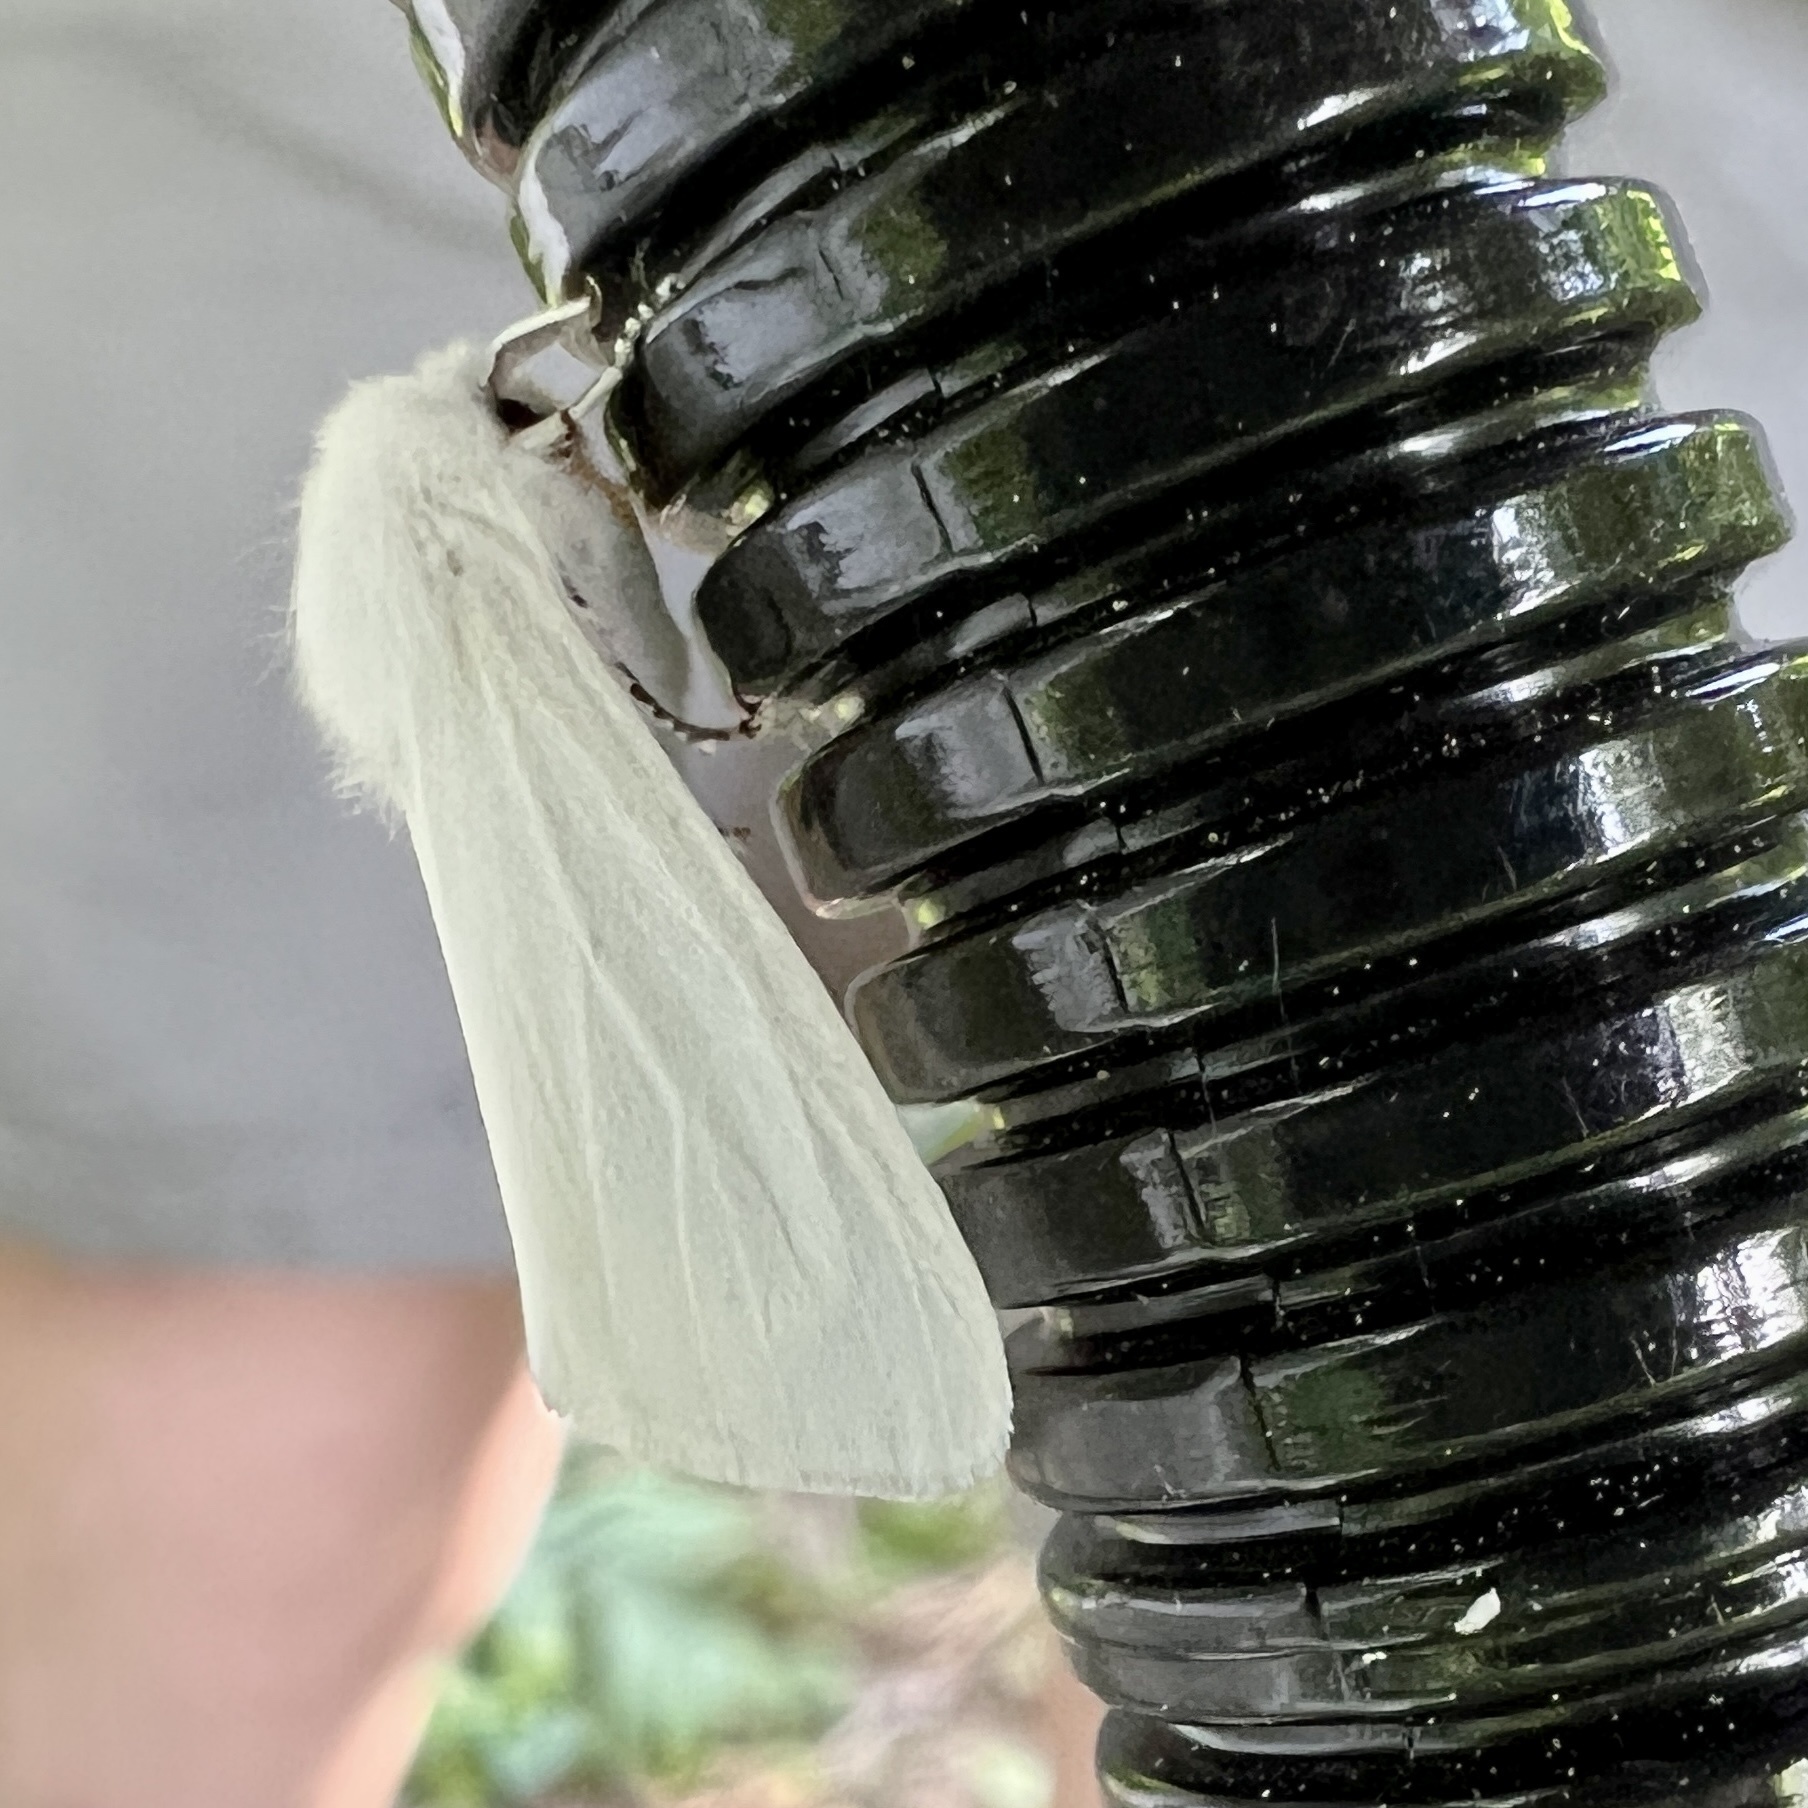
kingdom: Animalia
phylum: Arthropoda
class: Insecta
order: Lepidoptera
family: Erebidae
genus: Hyphantria
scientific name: Hyphantria cunea
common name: American white moth
